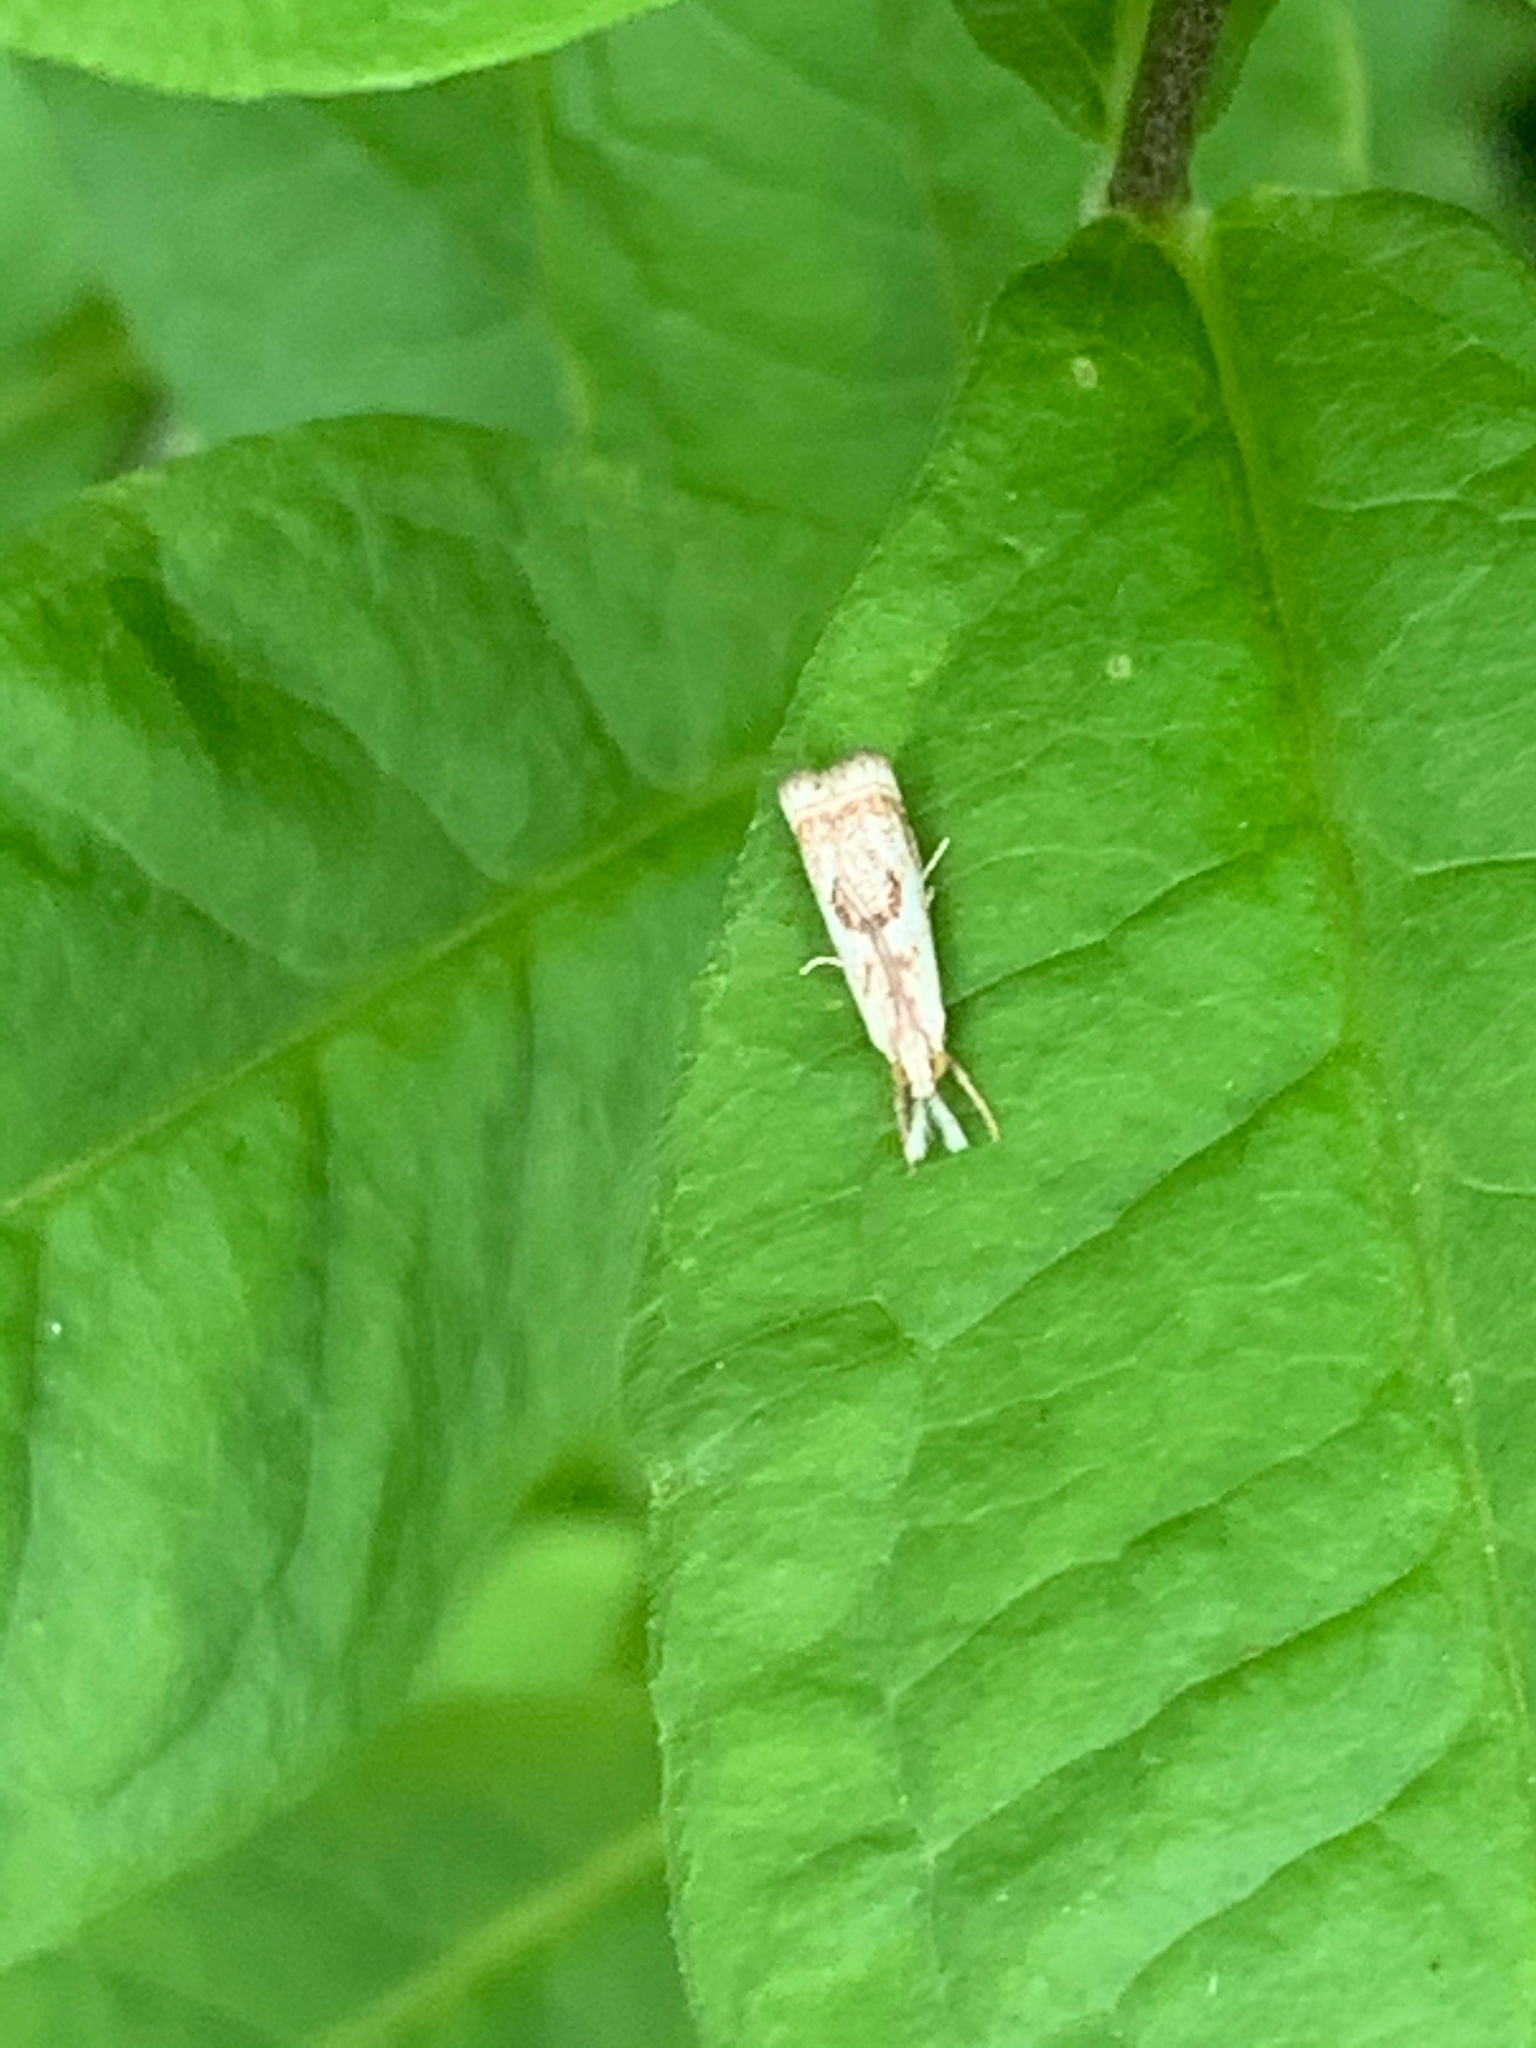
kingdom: Animalia
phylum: Arthropoda
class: Insecta
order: Lepidoptera
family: Crambidae
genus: Microcrambus
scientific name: Microcrambus elegans
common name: Elegant grass-veneer
